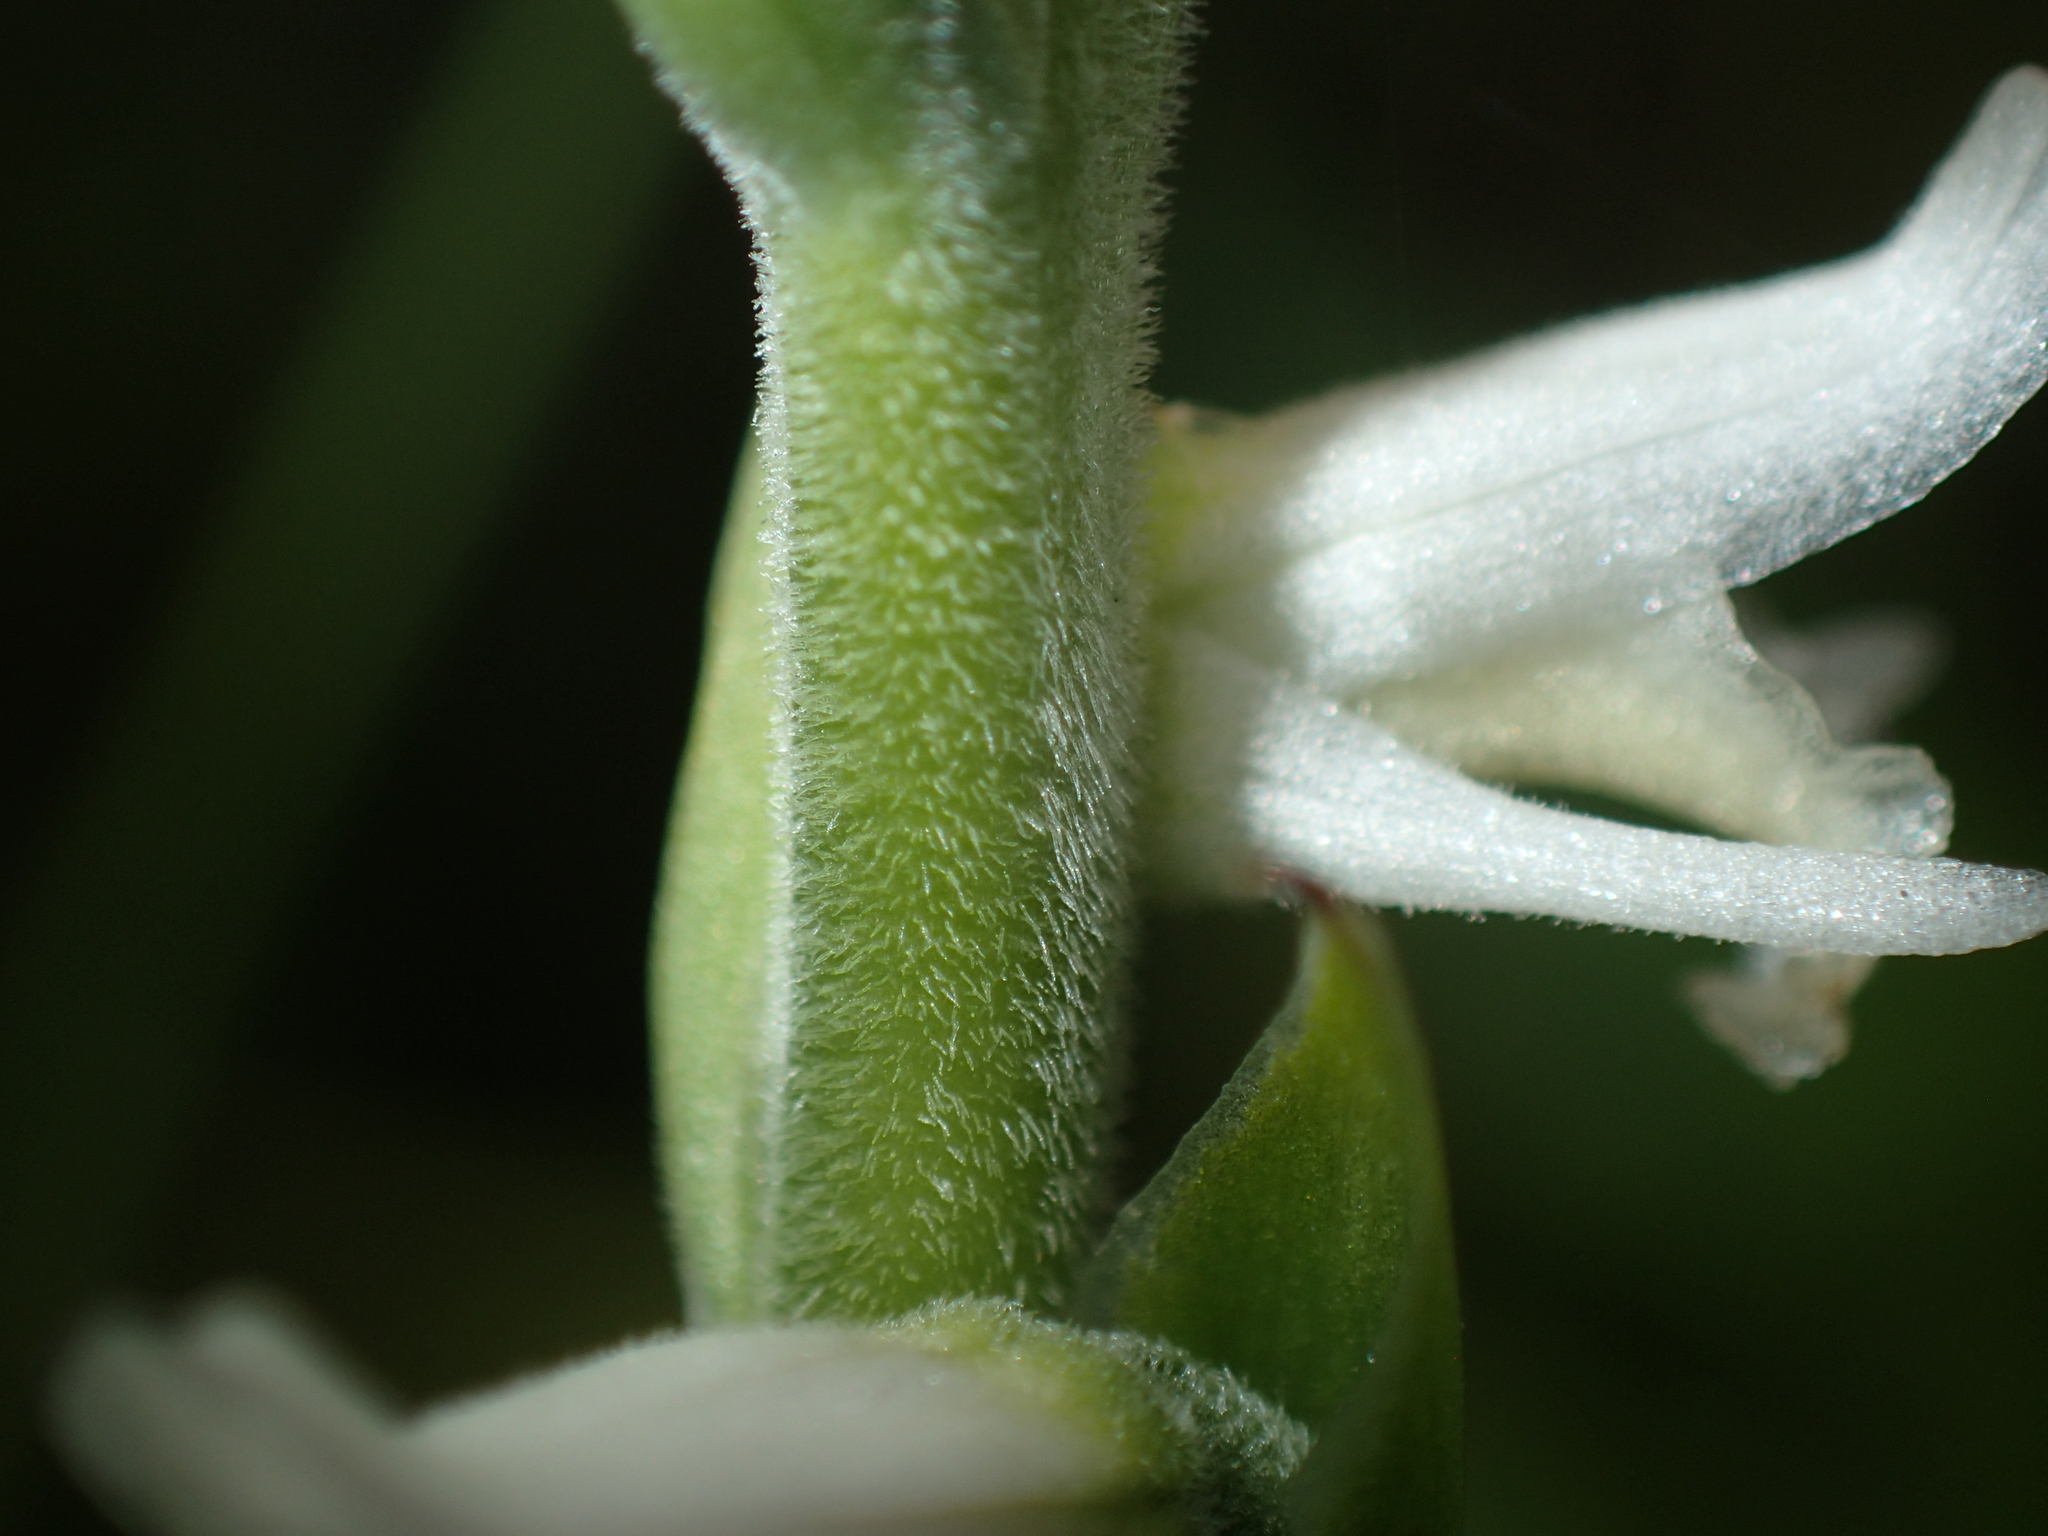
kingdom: Plantae
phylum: Tracheophyta
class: Liliopsida
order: Asparagales
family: Orchidaceae
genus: Spiranthes
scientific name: Spiranthes vernalis
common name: Spring ladies'-tresses
